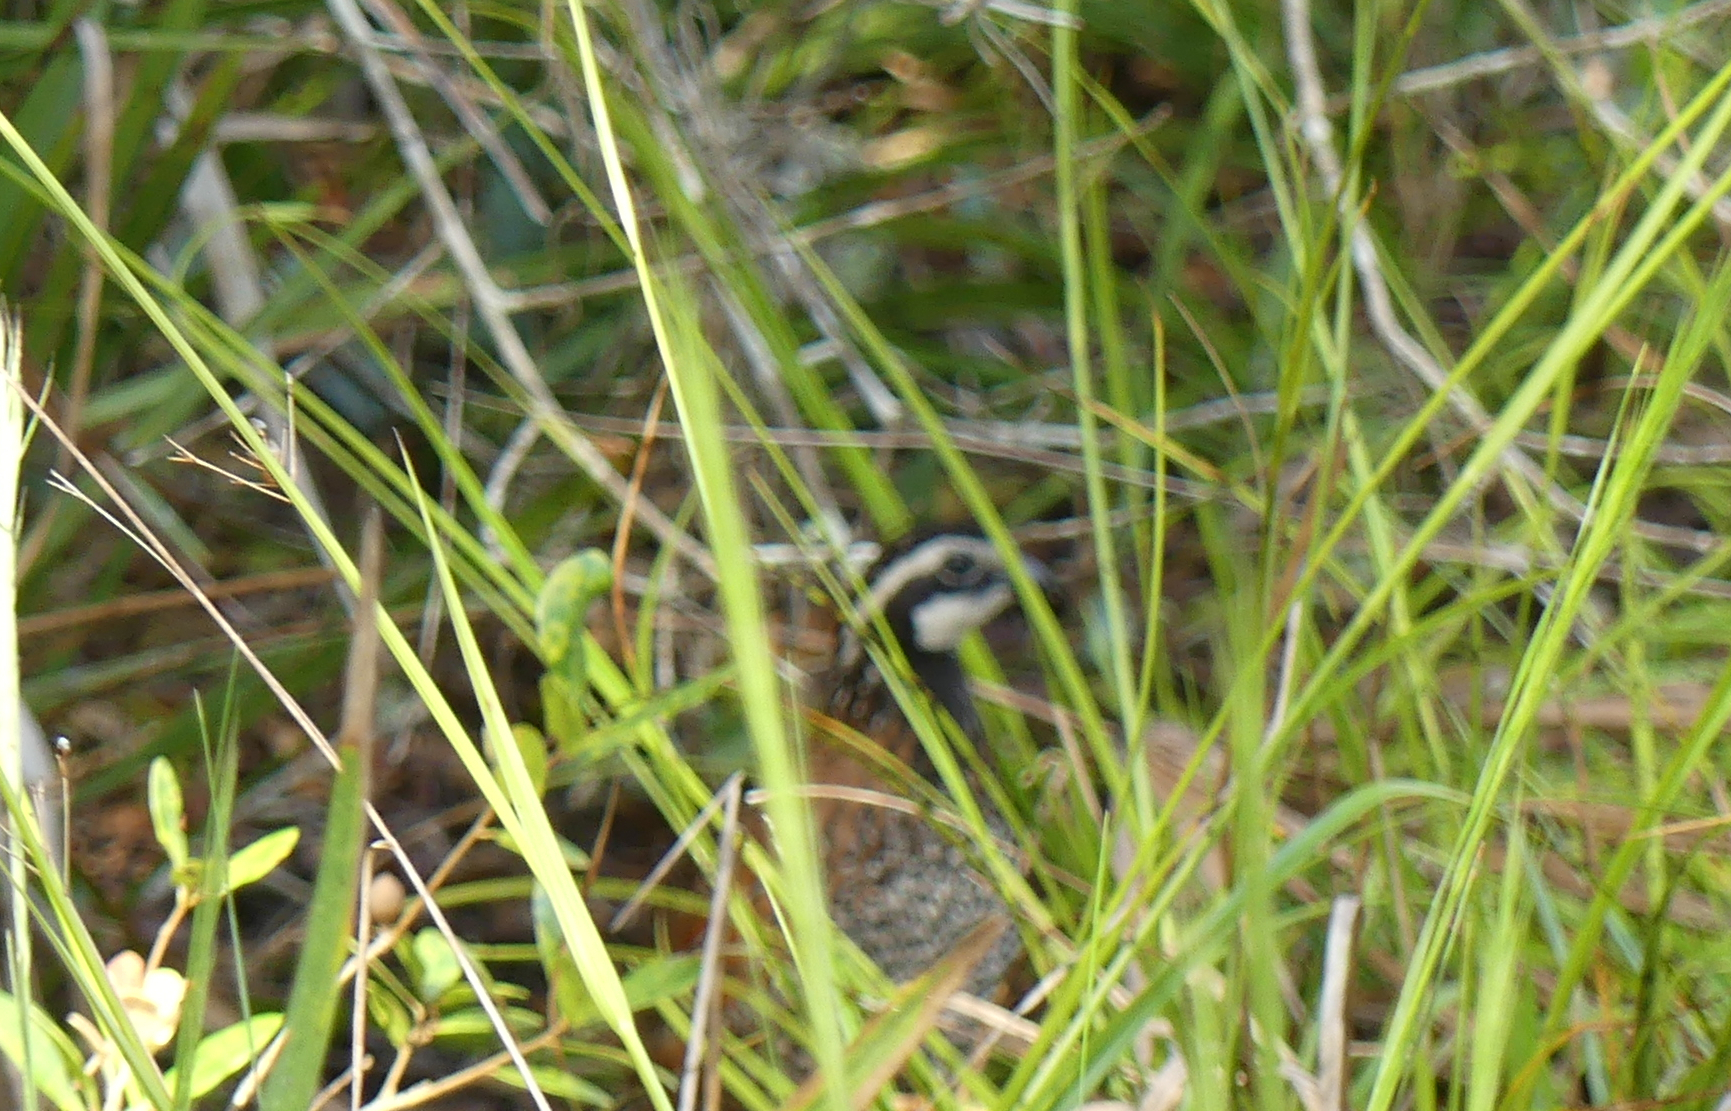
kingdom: Animalia
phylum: Chordata
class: Aves
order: Galliformes
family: Odontophoridae
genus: Colinus
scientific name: Colinus virginianus
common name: Northern bobwhite
